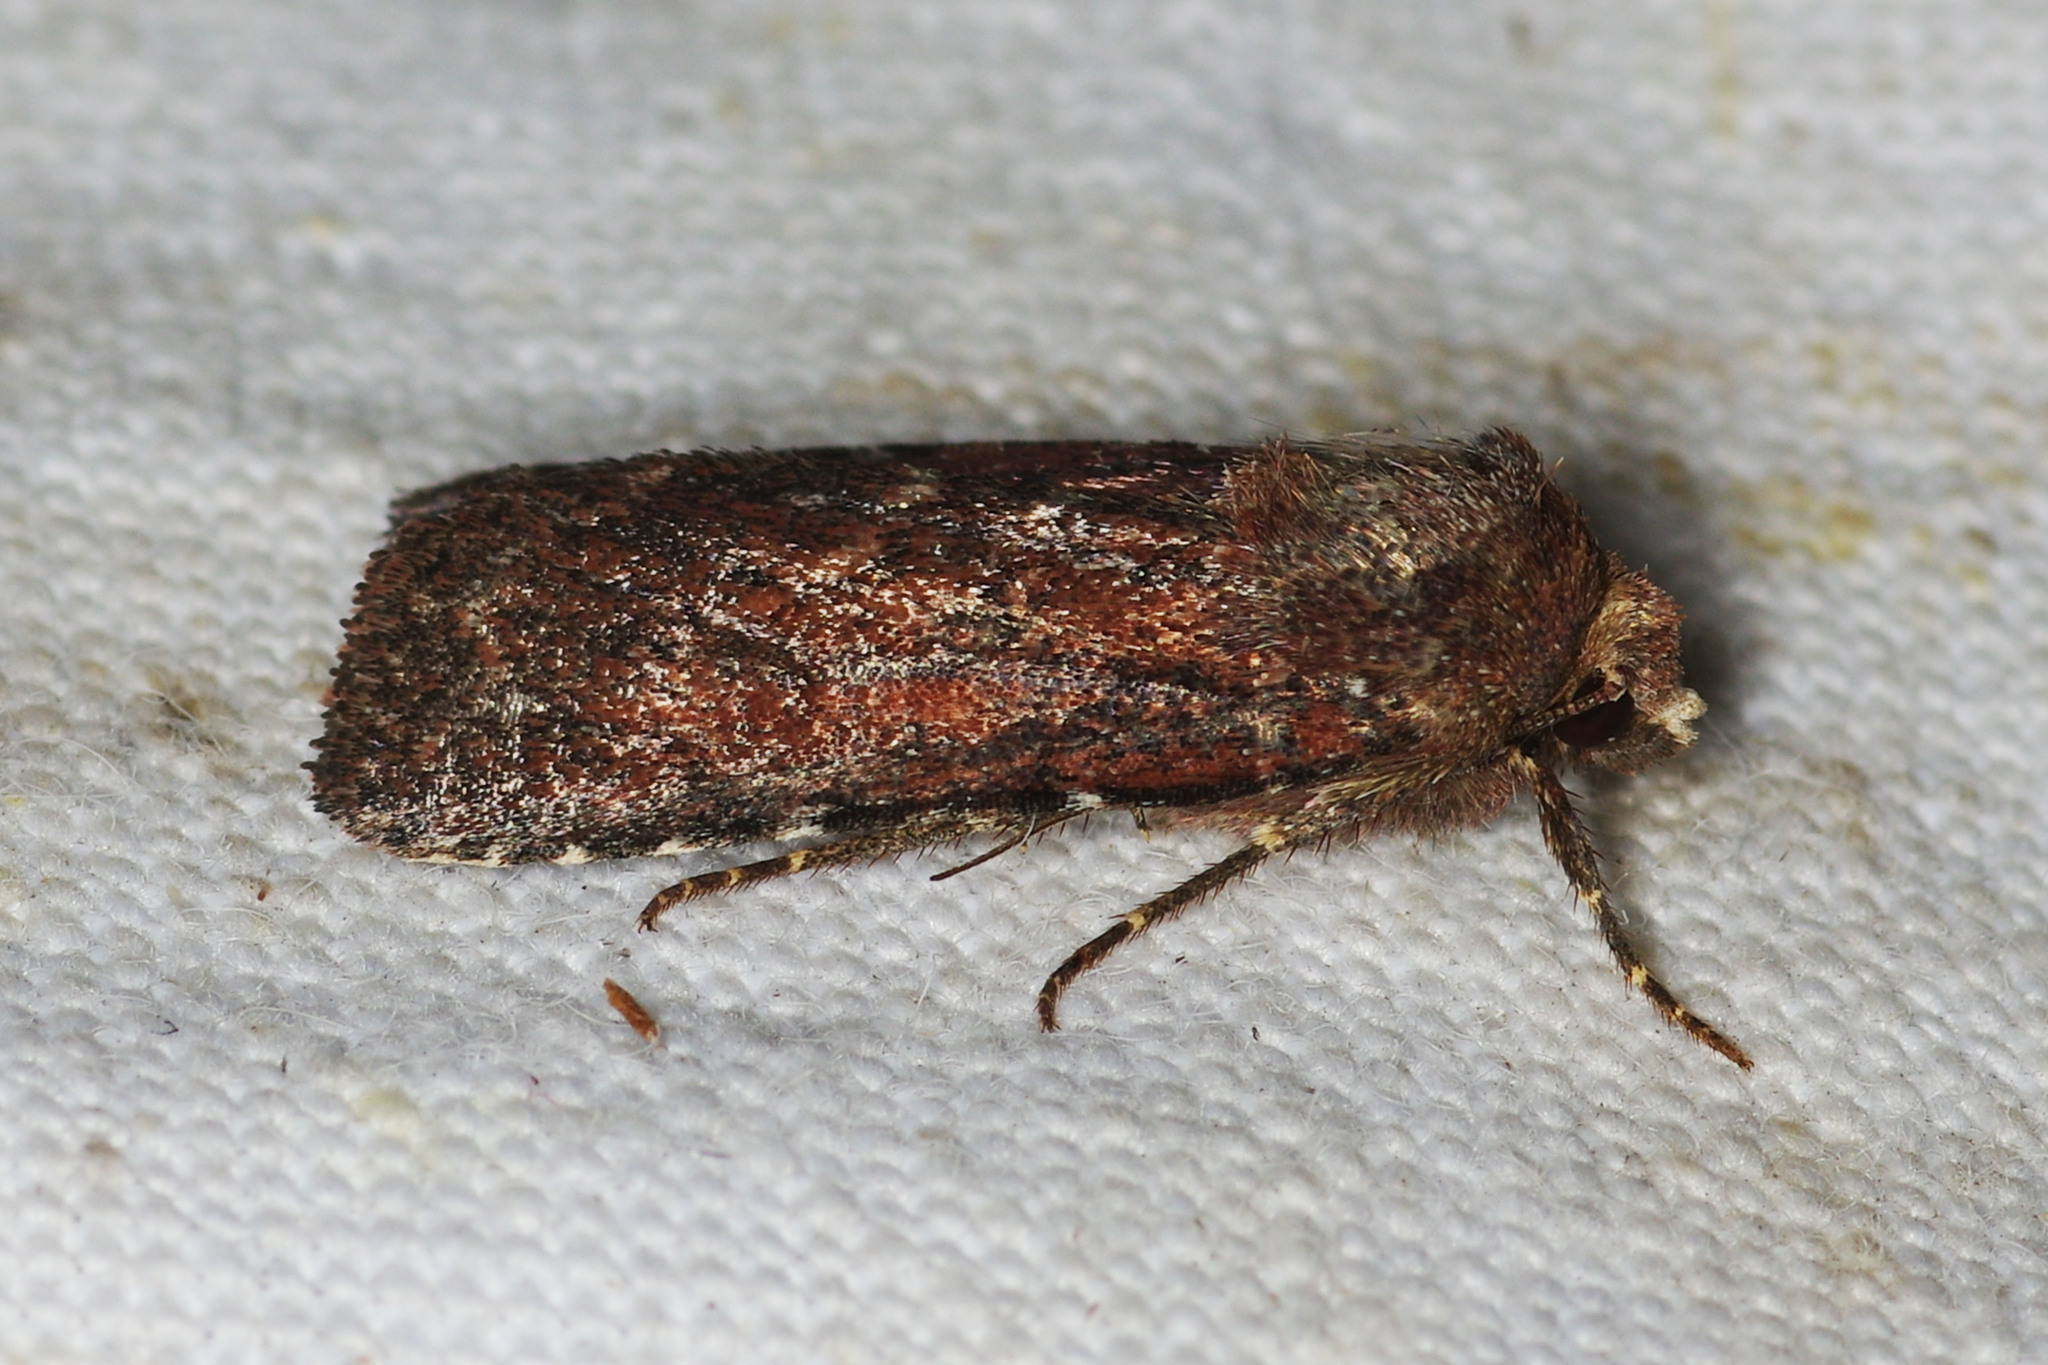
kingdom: Animalia
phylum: Arthropoda
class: Insecta
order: Lepidoptera
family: Noctuidae
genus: Lycophotia
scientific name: Lycophotia erythrina
